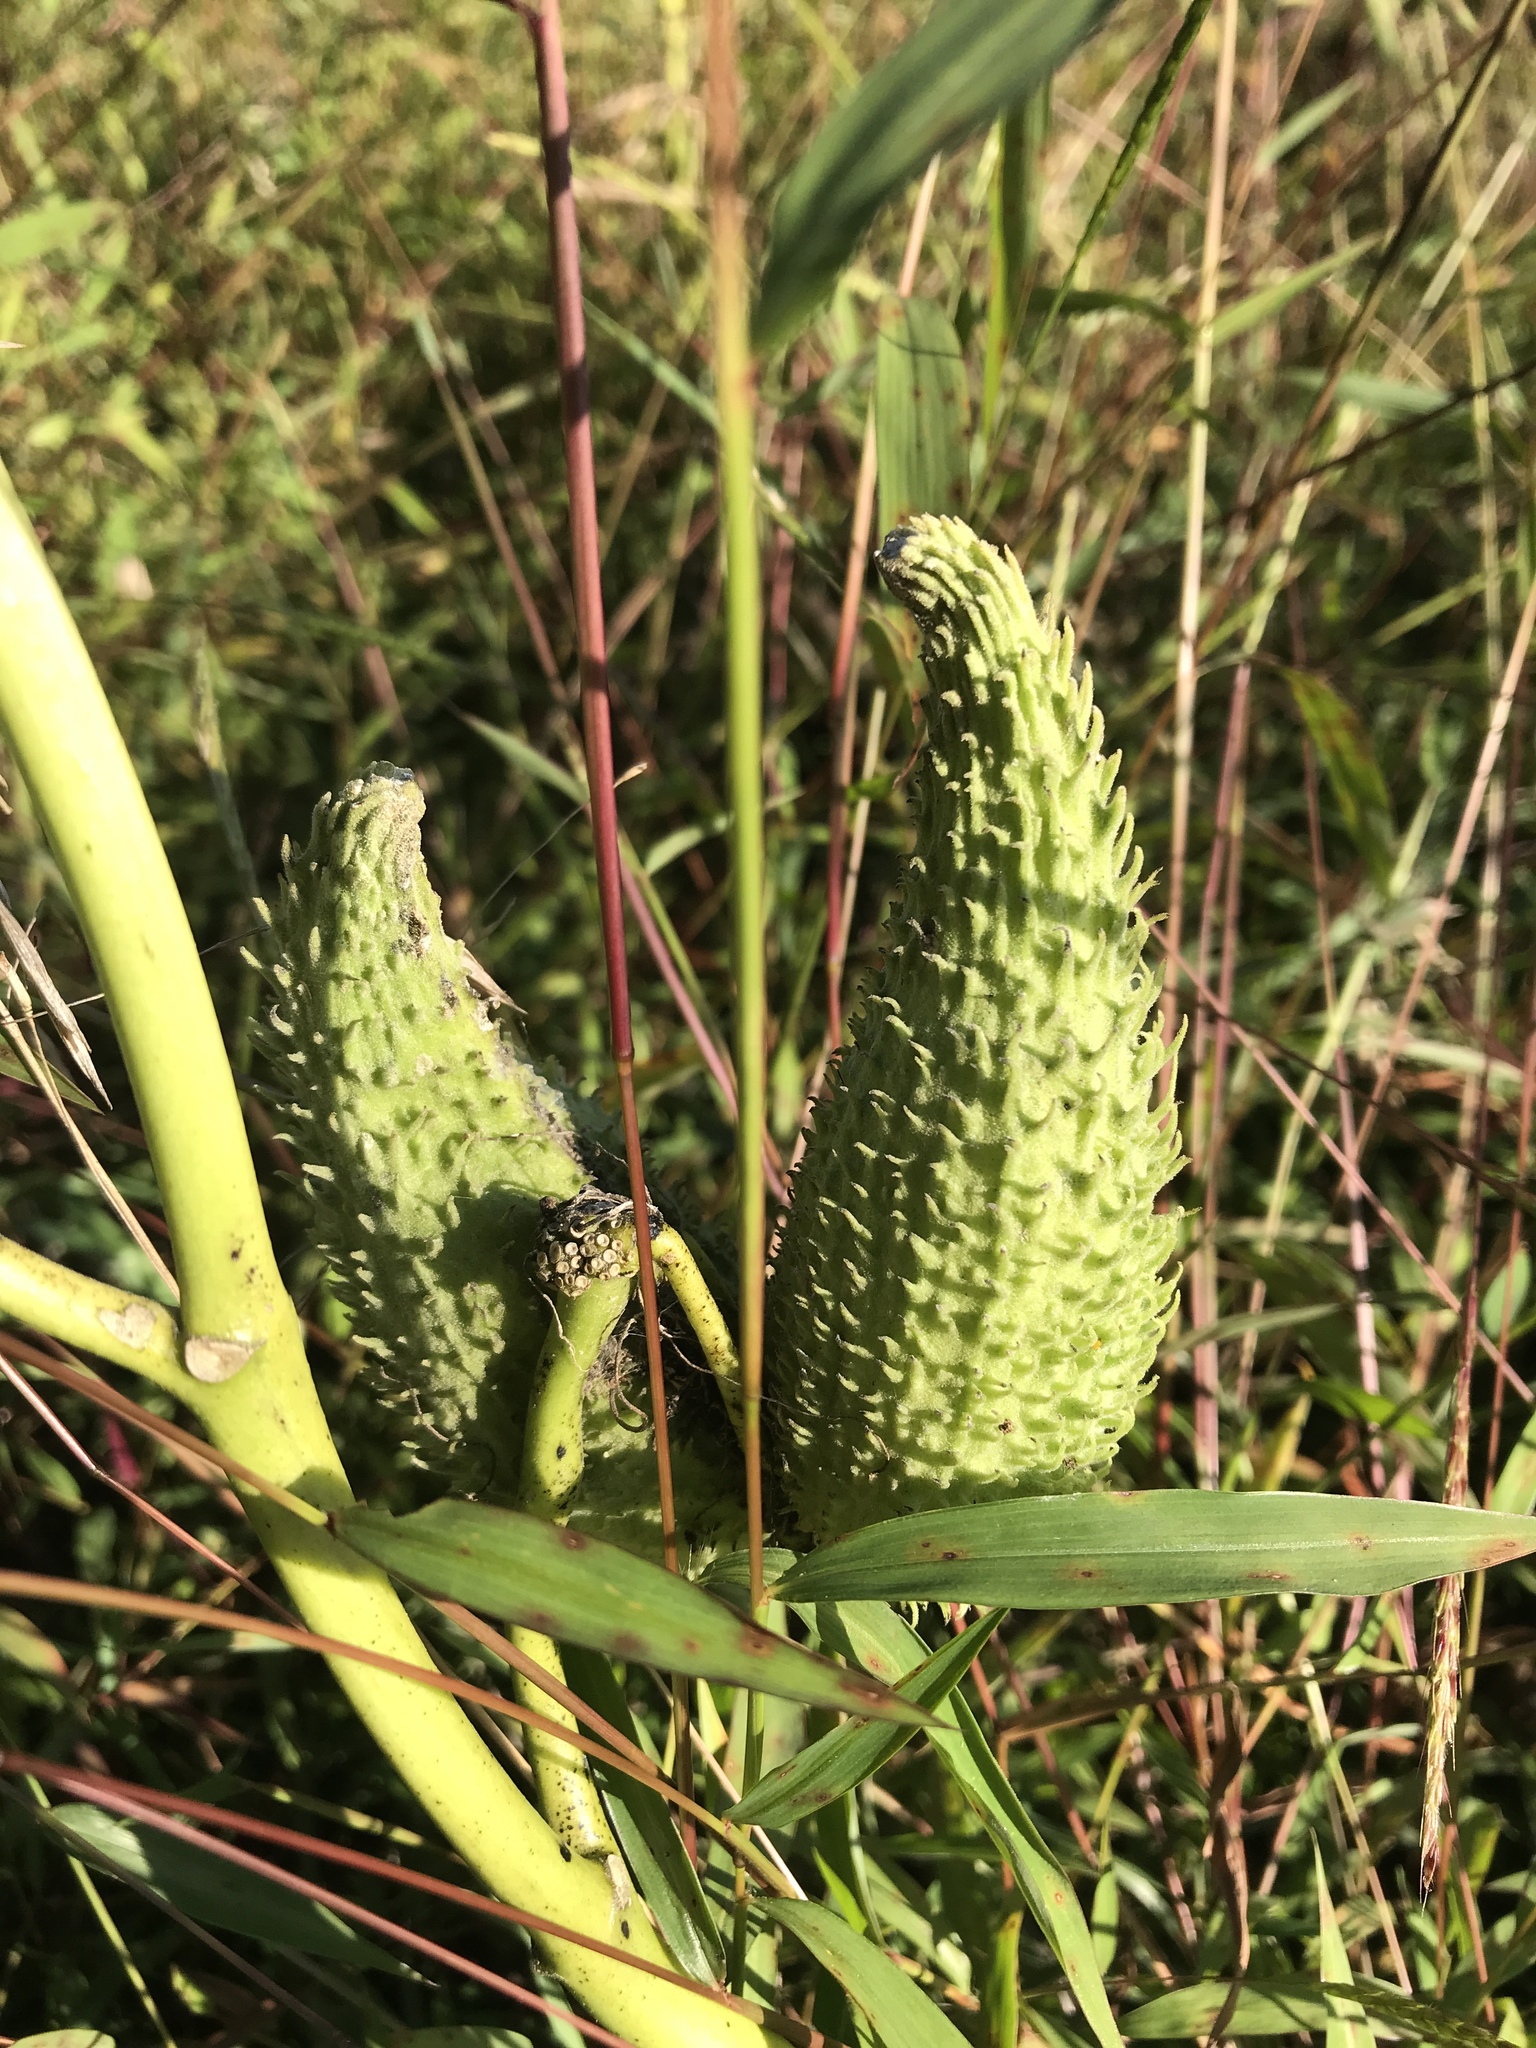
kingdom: Plantae
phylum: Tracheophyta
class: Magnoliopsida
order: Gentianales
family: Apocynaceae
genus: Asclepias
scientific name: Asclepias syriaca
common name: Common milkweed
